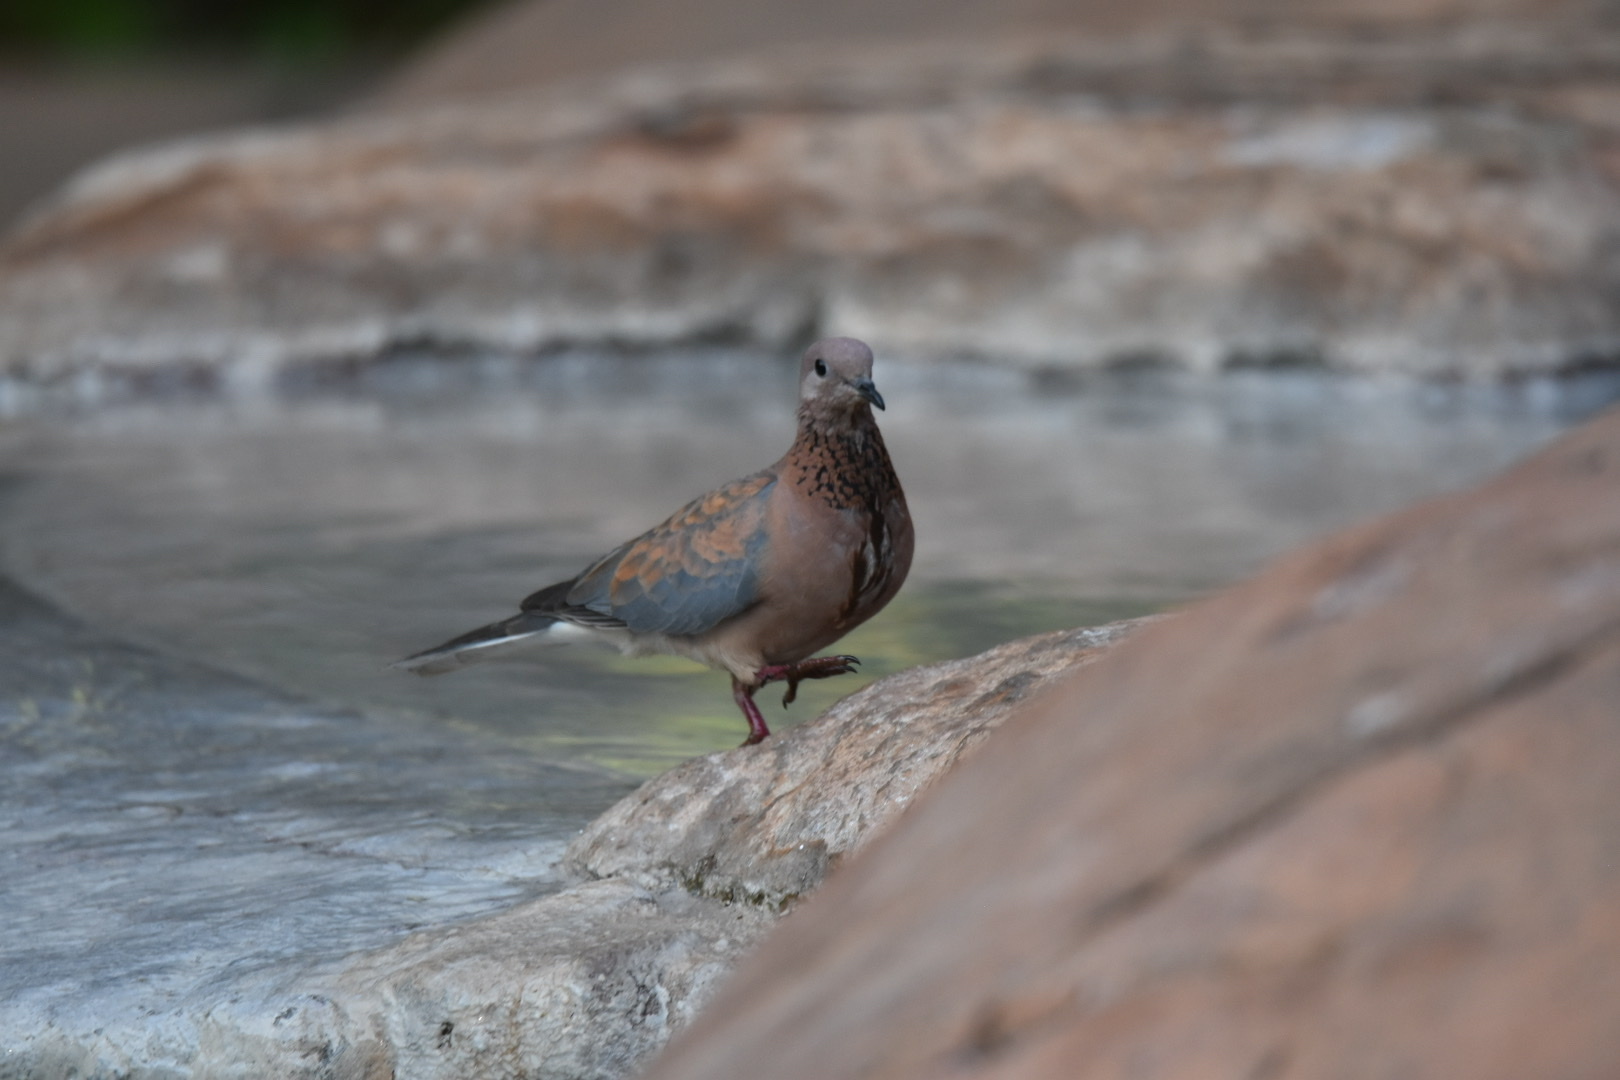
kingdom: Animalia
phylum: Chordata
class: Aves
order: Columbiformes
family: Columbidae
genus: Spilopelia
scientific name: Spilopelia senegalensis
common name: Laughing dove
